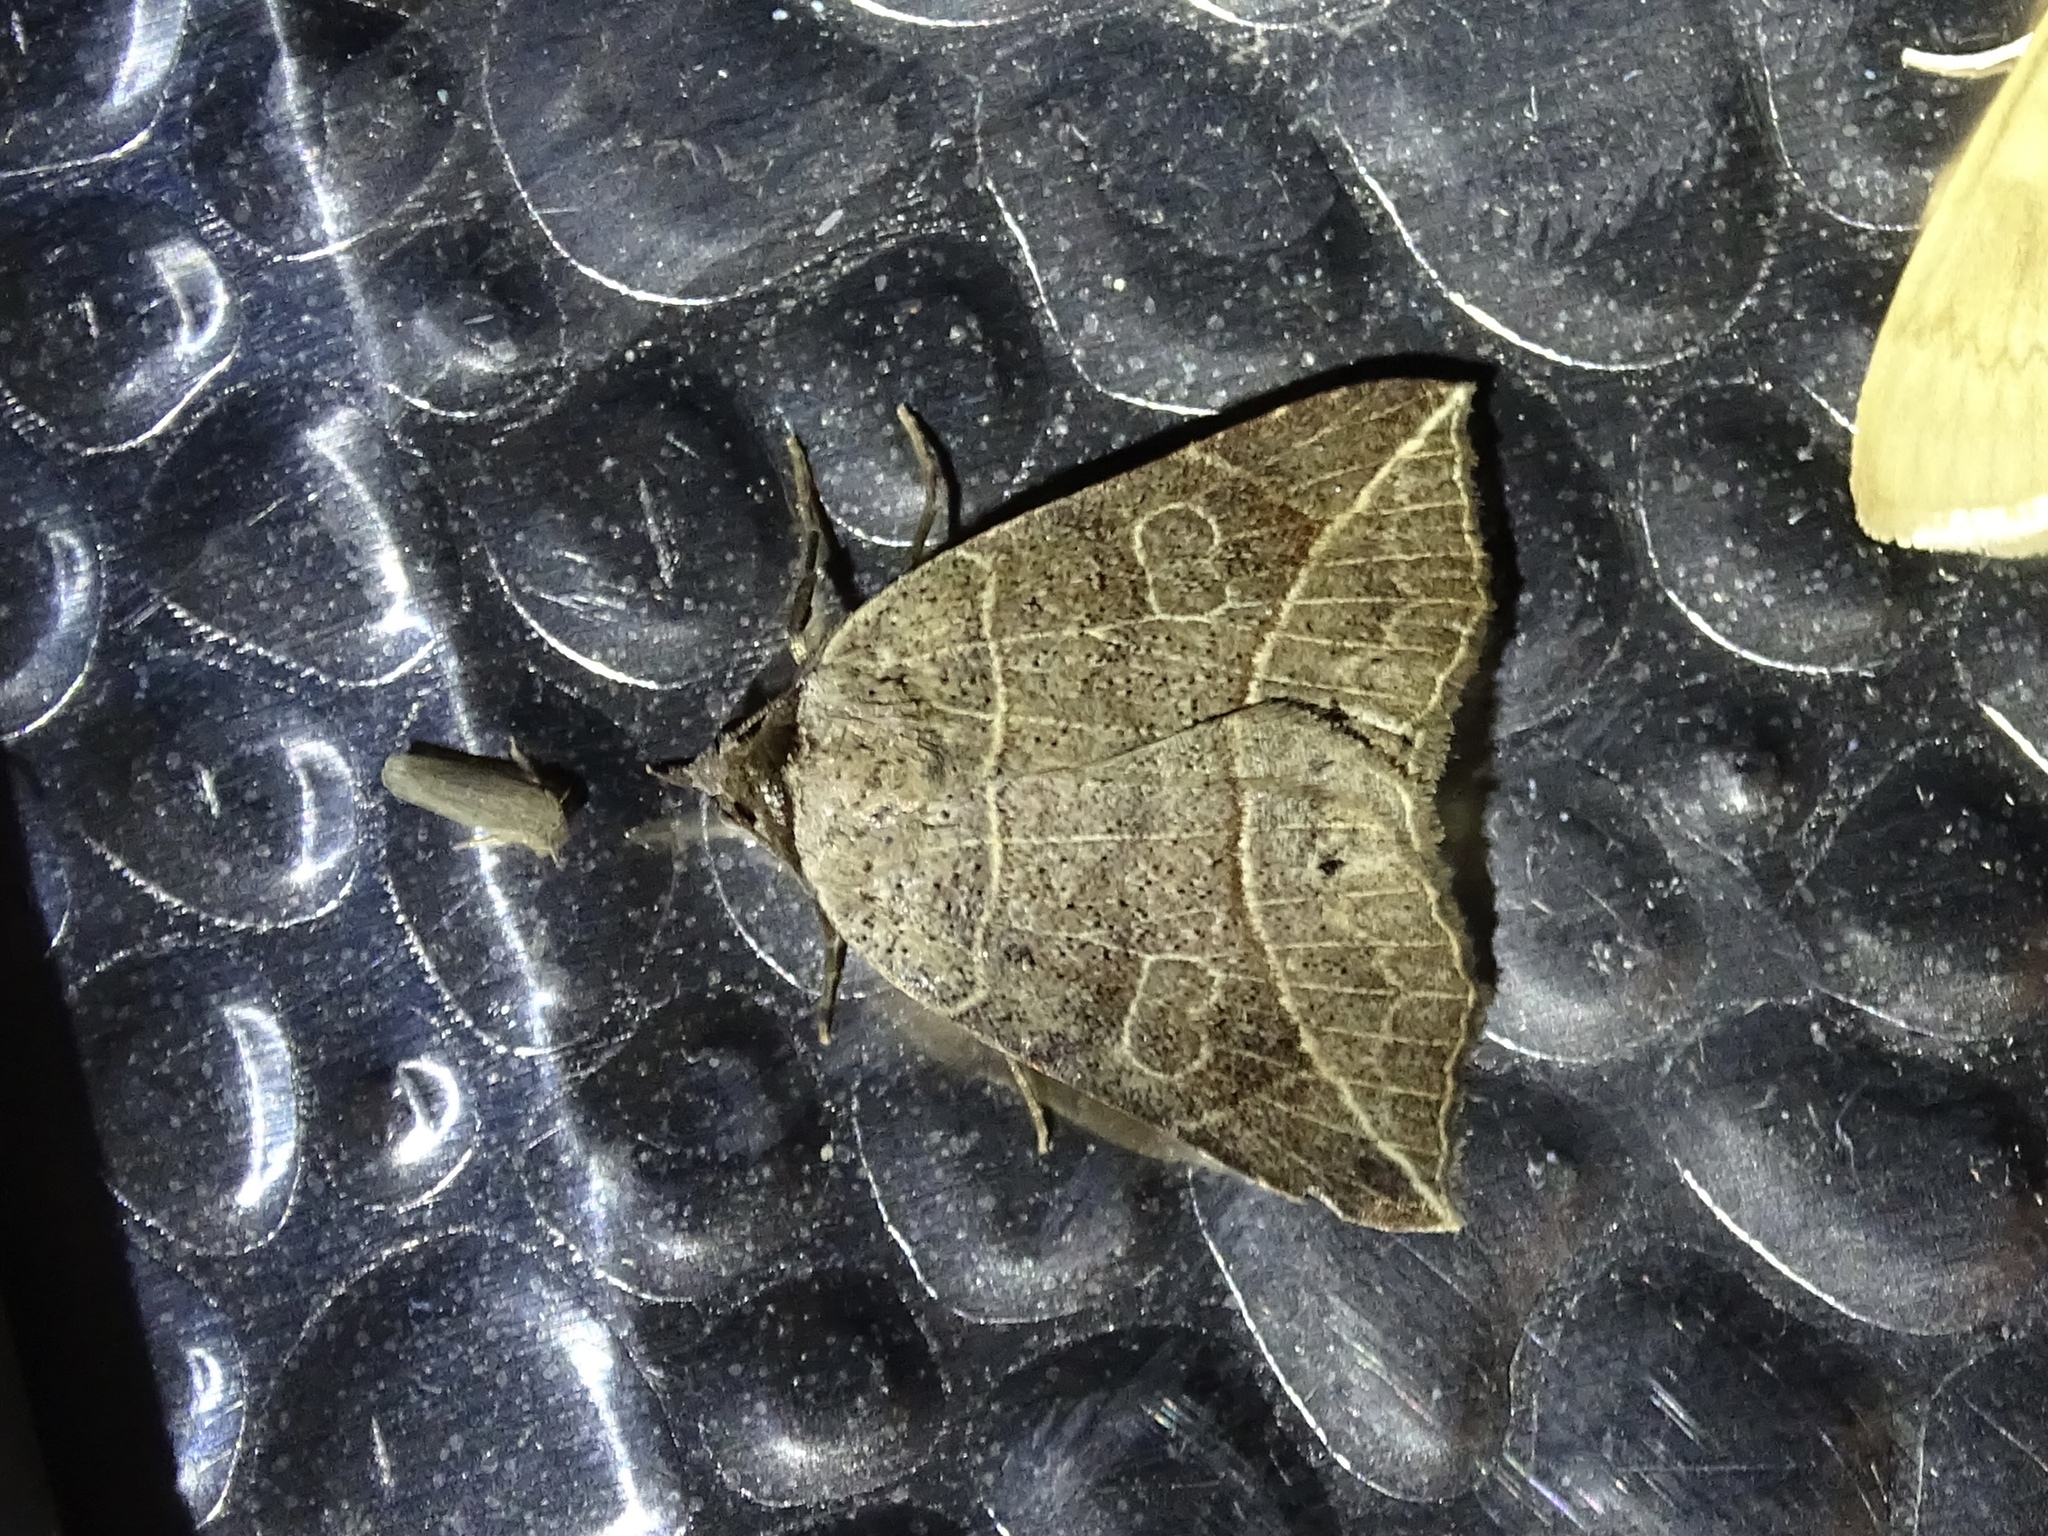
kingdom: Animalia
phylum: Arthropoda
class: Insecta
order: Lepidoptera
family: Erebidae
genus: Isogona
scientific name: Isogona tenuis
